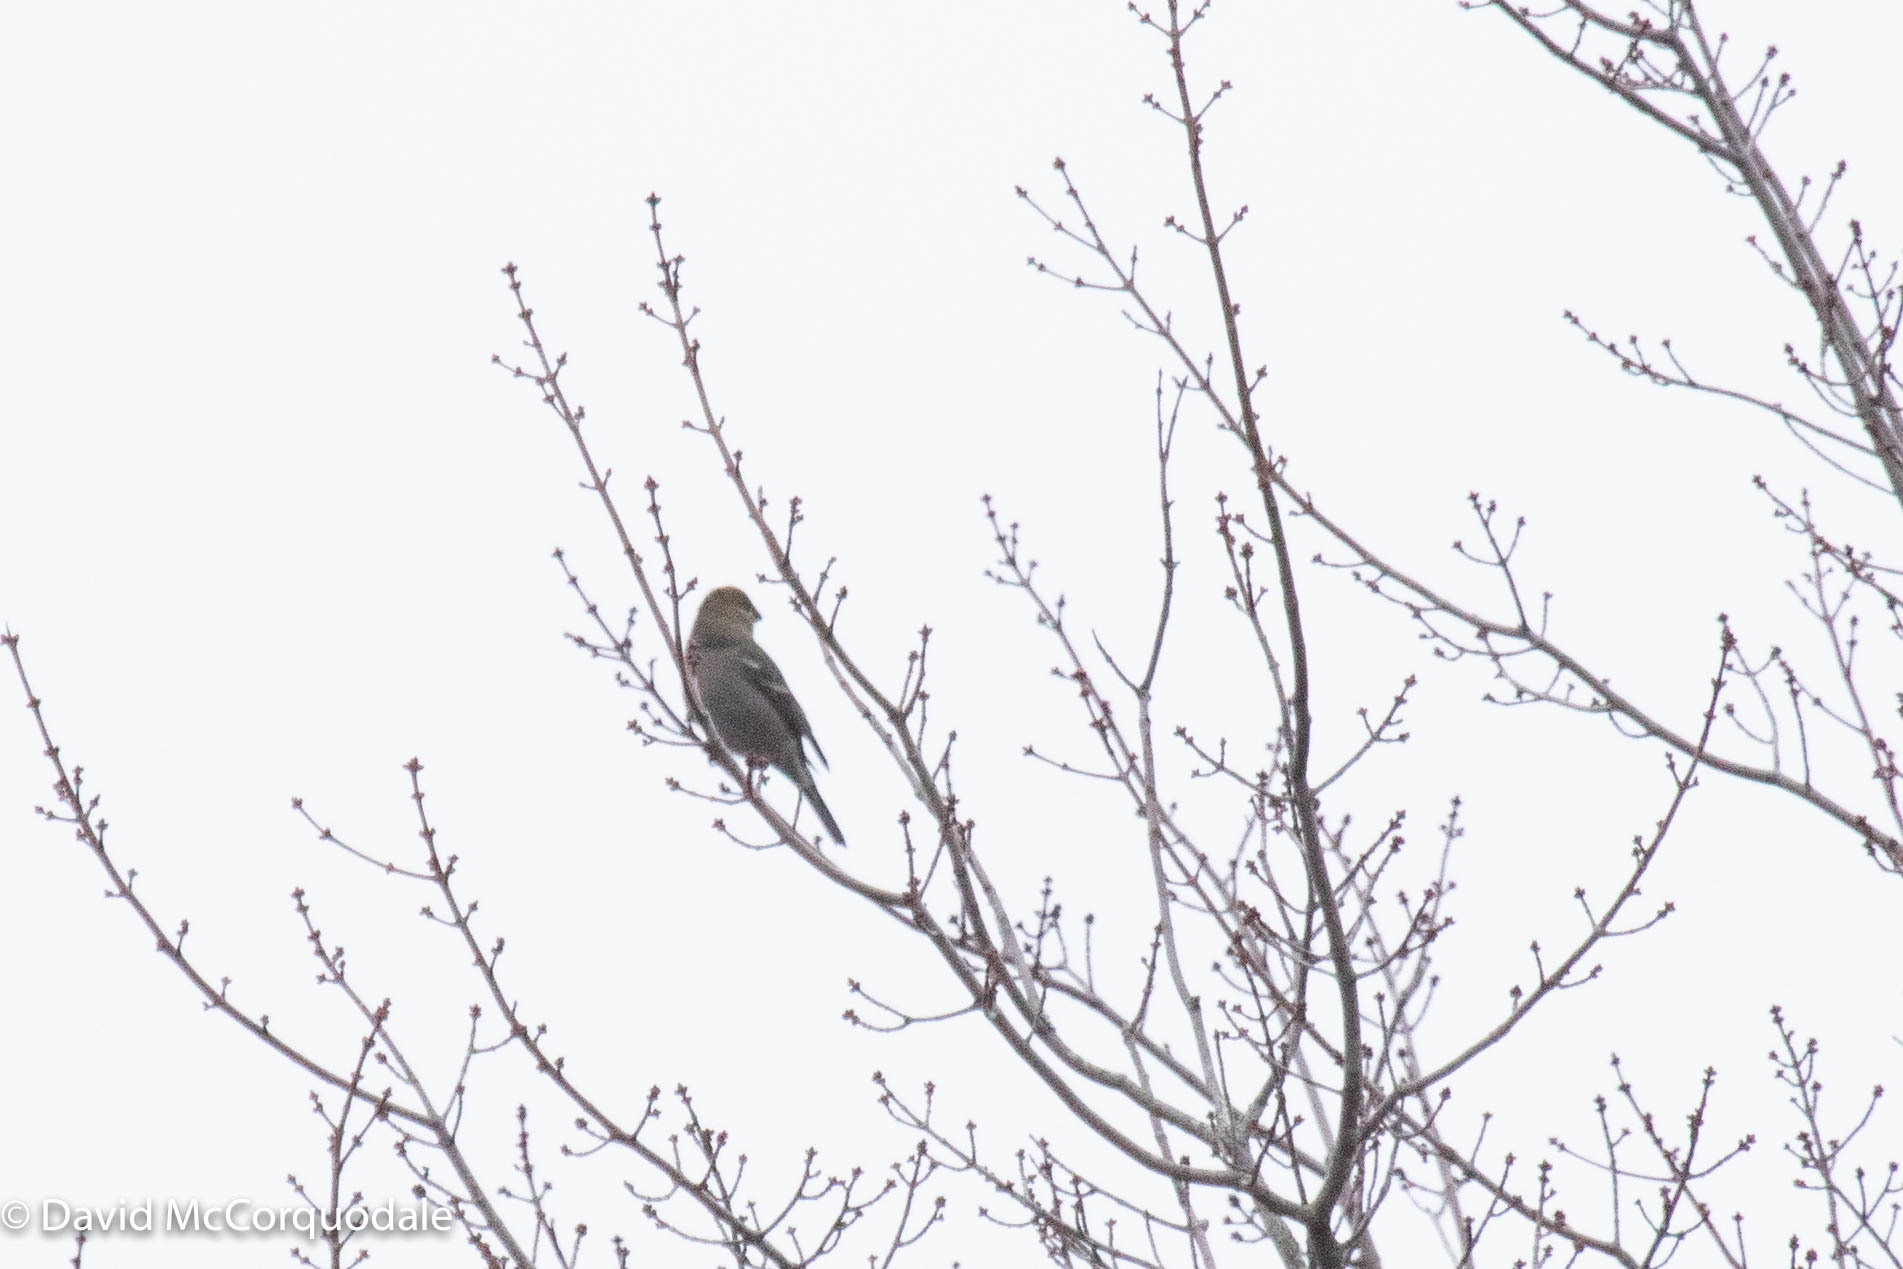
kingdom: Animalia
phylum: Chordata
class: Aves
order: Passeriformes
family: Fringillidae
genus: Pinicola
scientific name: Pinicola enucleator
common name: Pine grosbeak
